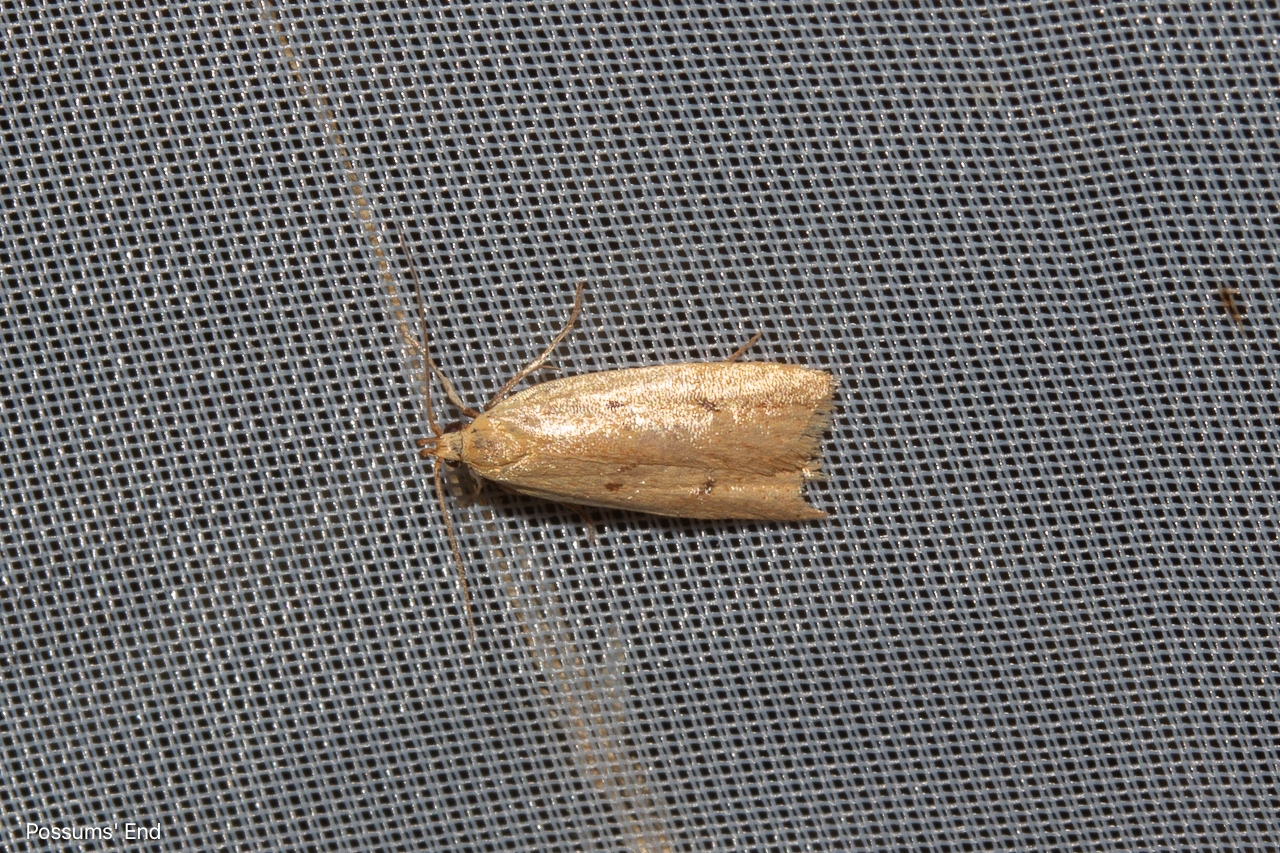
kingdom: Animalia
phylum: Arthropoda
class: Insecta
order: Lepidoptera
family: Oecophoridae
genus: Gymnobathra
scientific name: Gymnobathra sarcoxantha
